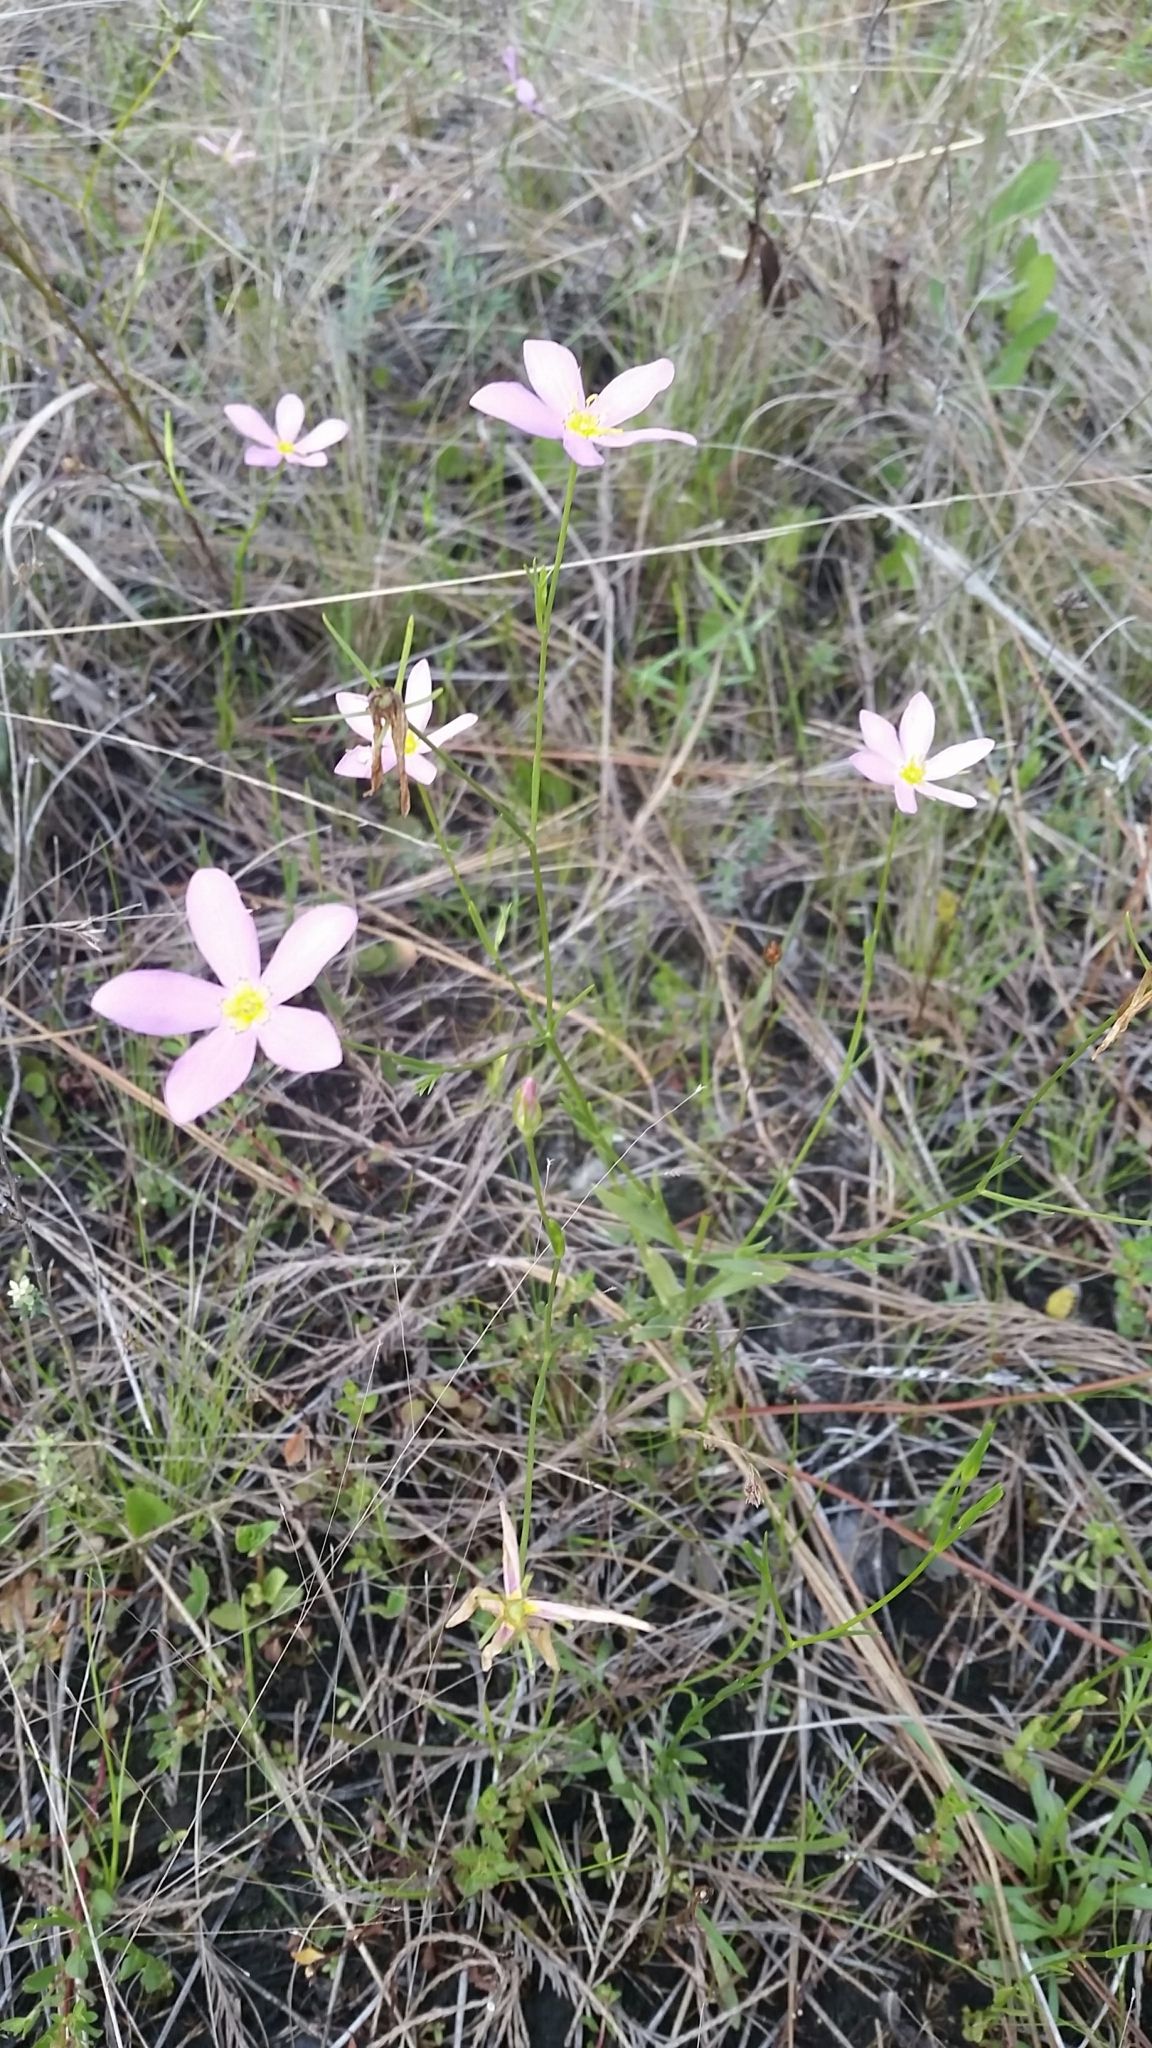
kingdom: Plantae
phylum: Tracheophyta
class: Magnoliopsida
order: Gentianales
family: Gentianaceae
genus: Sabatia
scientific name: Sabatia stellaris
